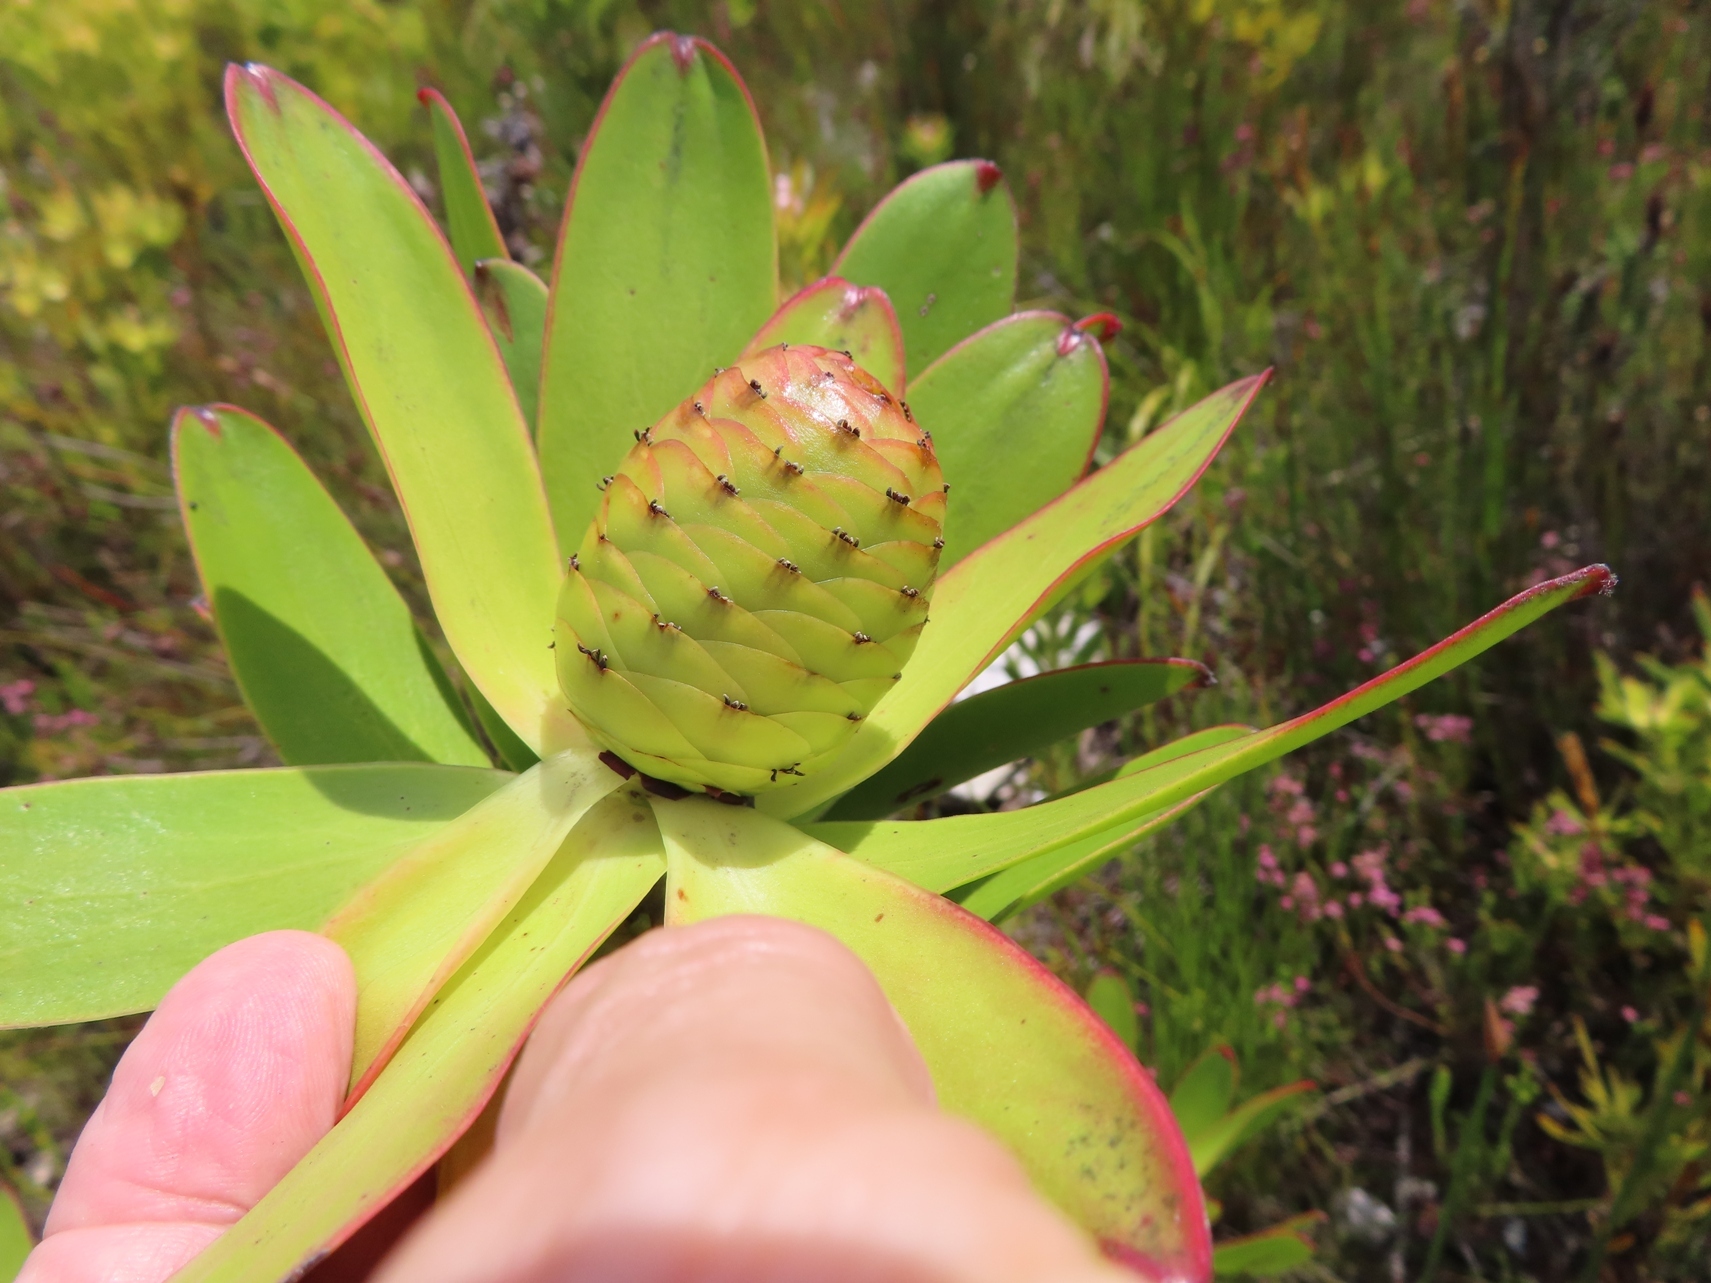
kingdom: Plantae
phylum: Tracheophyta
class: Magnoliopsida
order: Proteales
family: Proteaceae
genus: Leucadendron
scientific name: Leucadendron gandogeri
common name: Broad-leaf conebush
